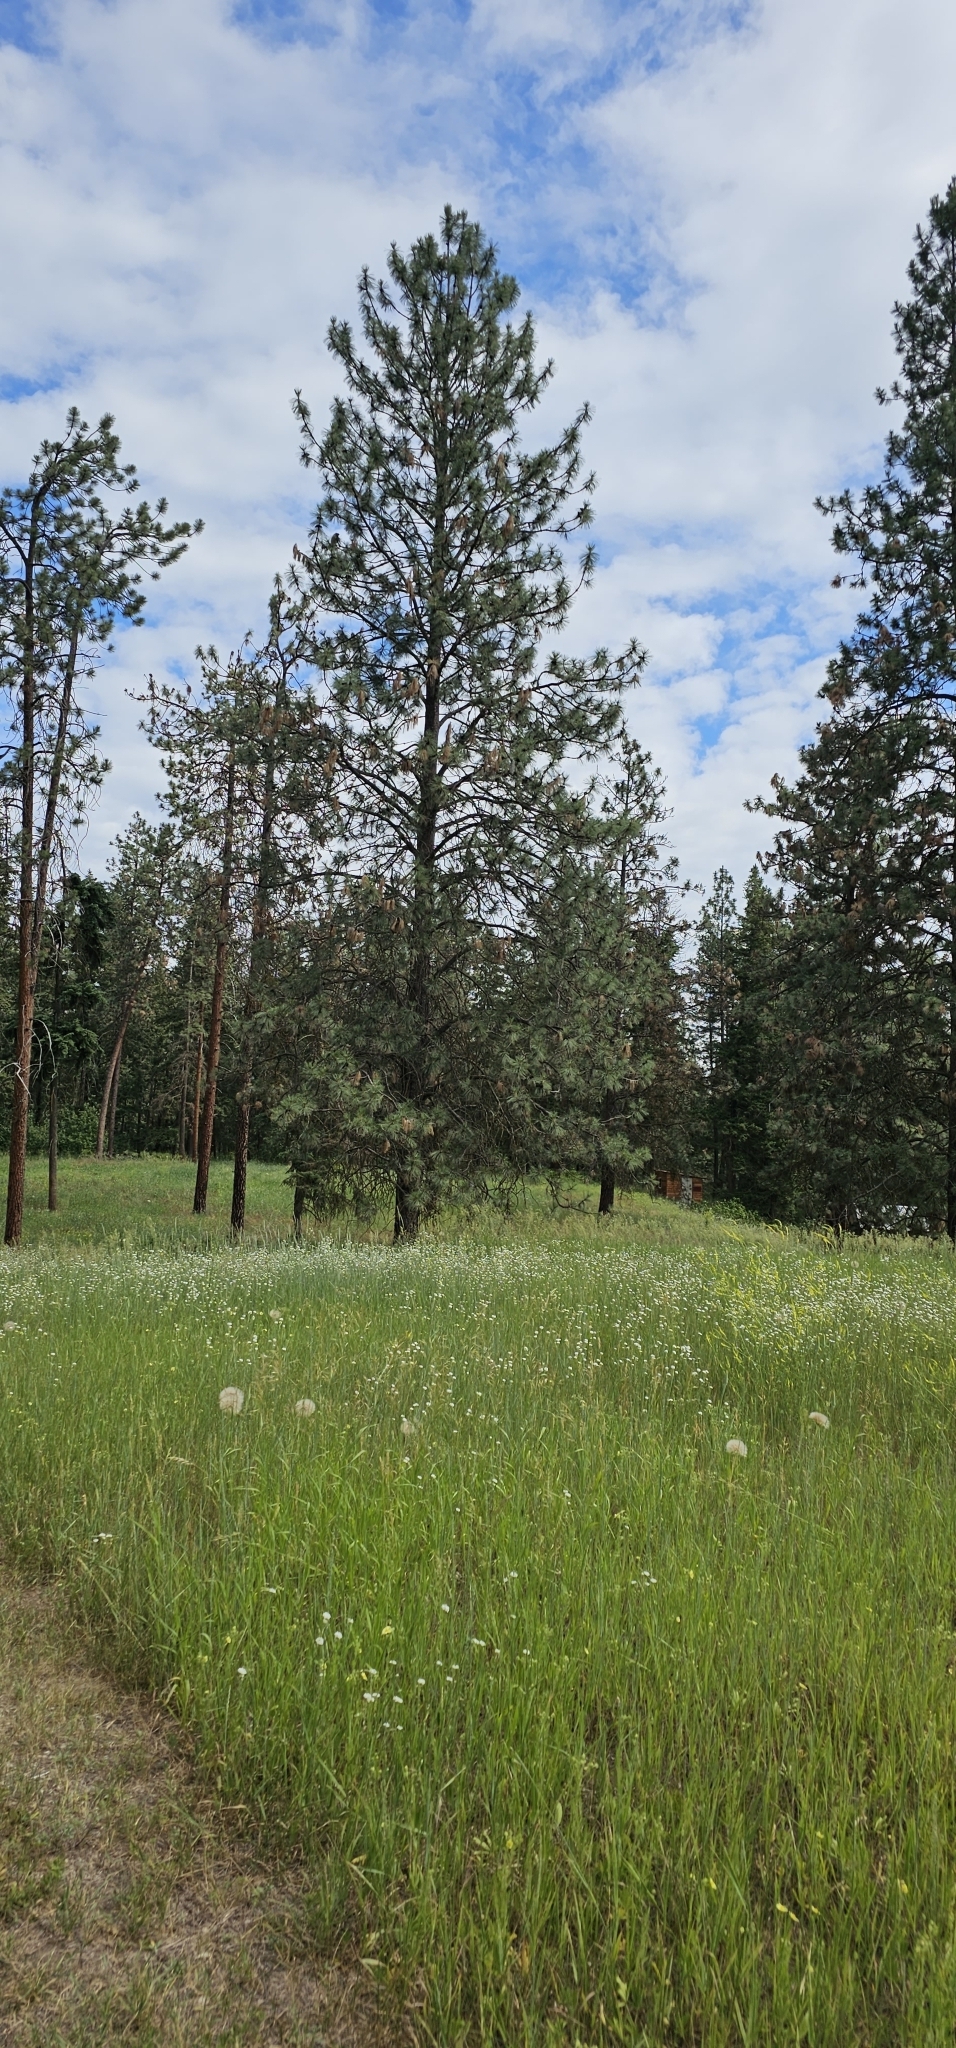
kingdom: Plantae
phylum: Tracheophyta
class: Pinopsida
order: Pinales
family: Pinaceae
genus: Pinus
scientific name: Pinus ponderosa
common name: Western yellow-pine
